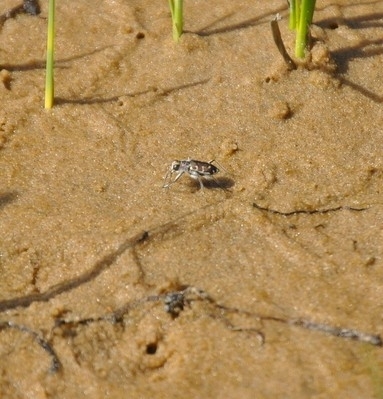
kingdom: Animalia
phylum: Arthropoda
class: Insecta
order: Coleoptera
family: Carabidae
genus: Cicindela
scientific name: Cicindela hirticollis
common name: Hairy-necked tiger beetle
